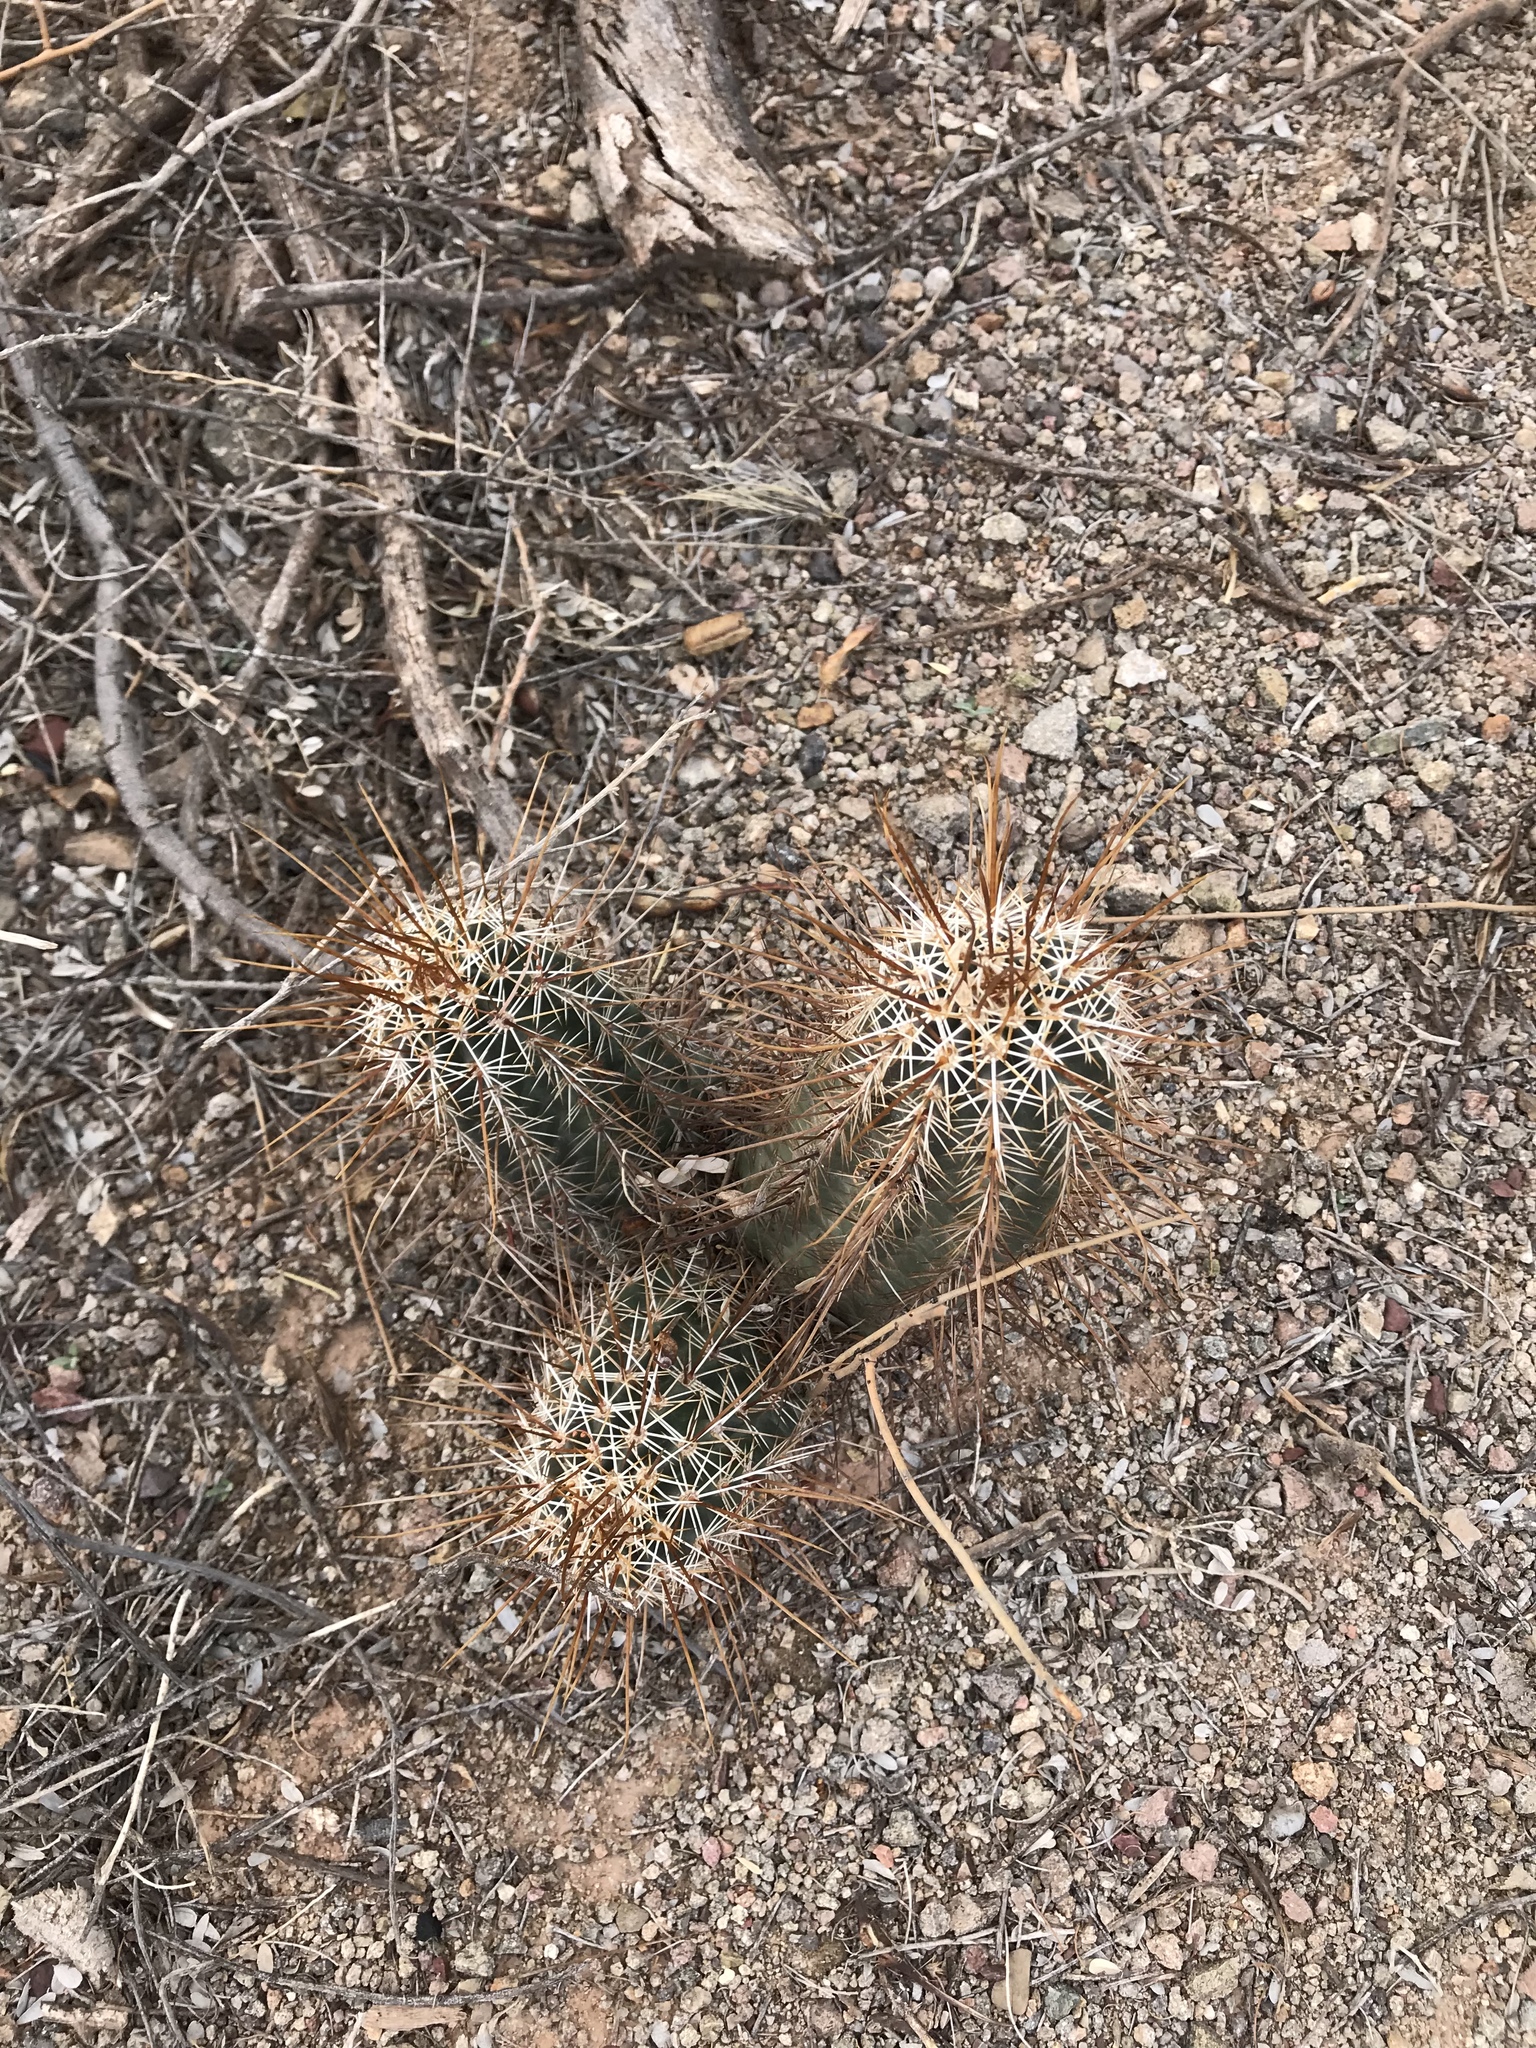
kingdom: Plantae
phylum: Tracheophyta
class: Magnoliopsida
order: Caryophyllales
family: Cactaceae
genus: Echinocereus
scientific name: Echinocereus fasciculatus
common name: Bundle hedgehog
